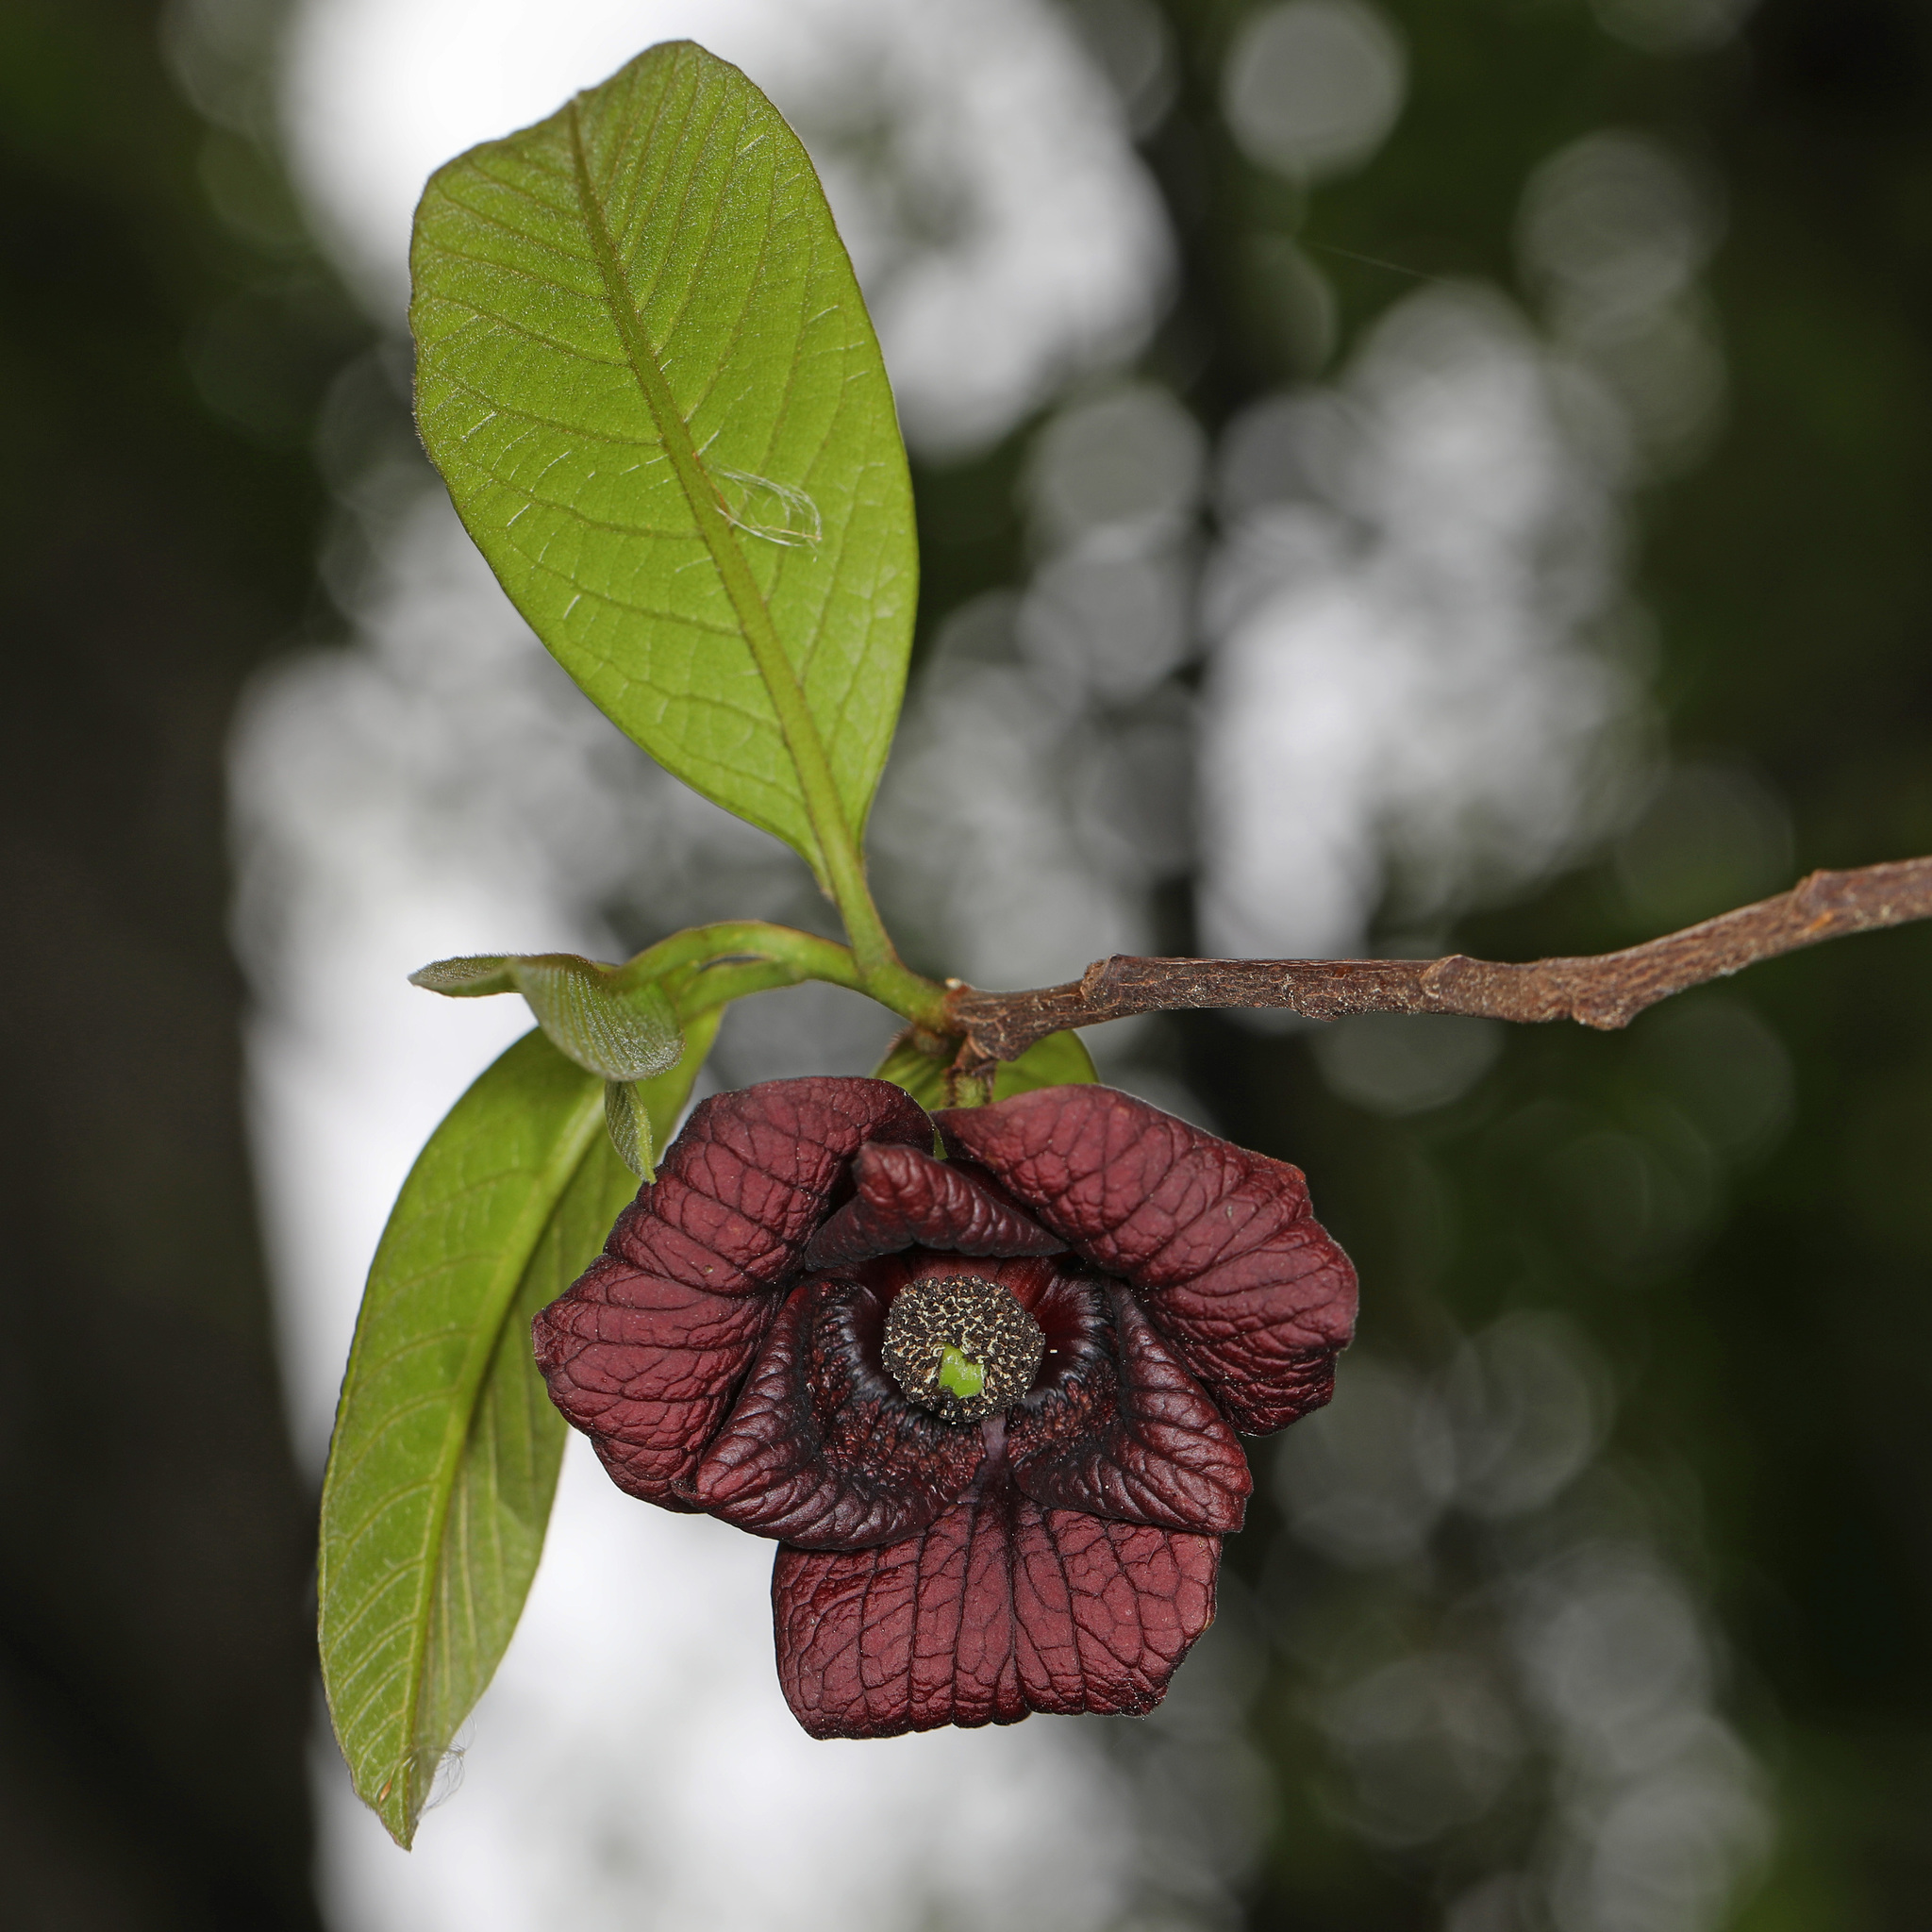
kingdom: Plantae
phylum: Tracheophyta
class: Magnoliopsida
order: Magnoliales
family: Annonaceae
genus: Asimina
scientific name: Asimina triloba
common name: Dog-banana
